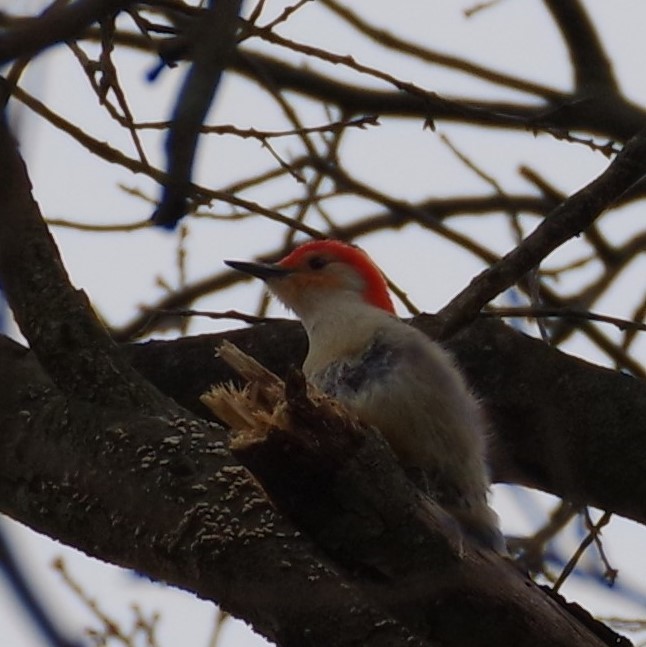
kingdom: Animalia
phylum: Chordata
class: Aves
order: Piciformes
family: Picidae
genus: Melanerpes
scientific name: Melanerpes carolinus
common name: Red-bellied woodpecker
